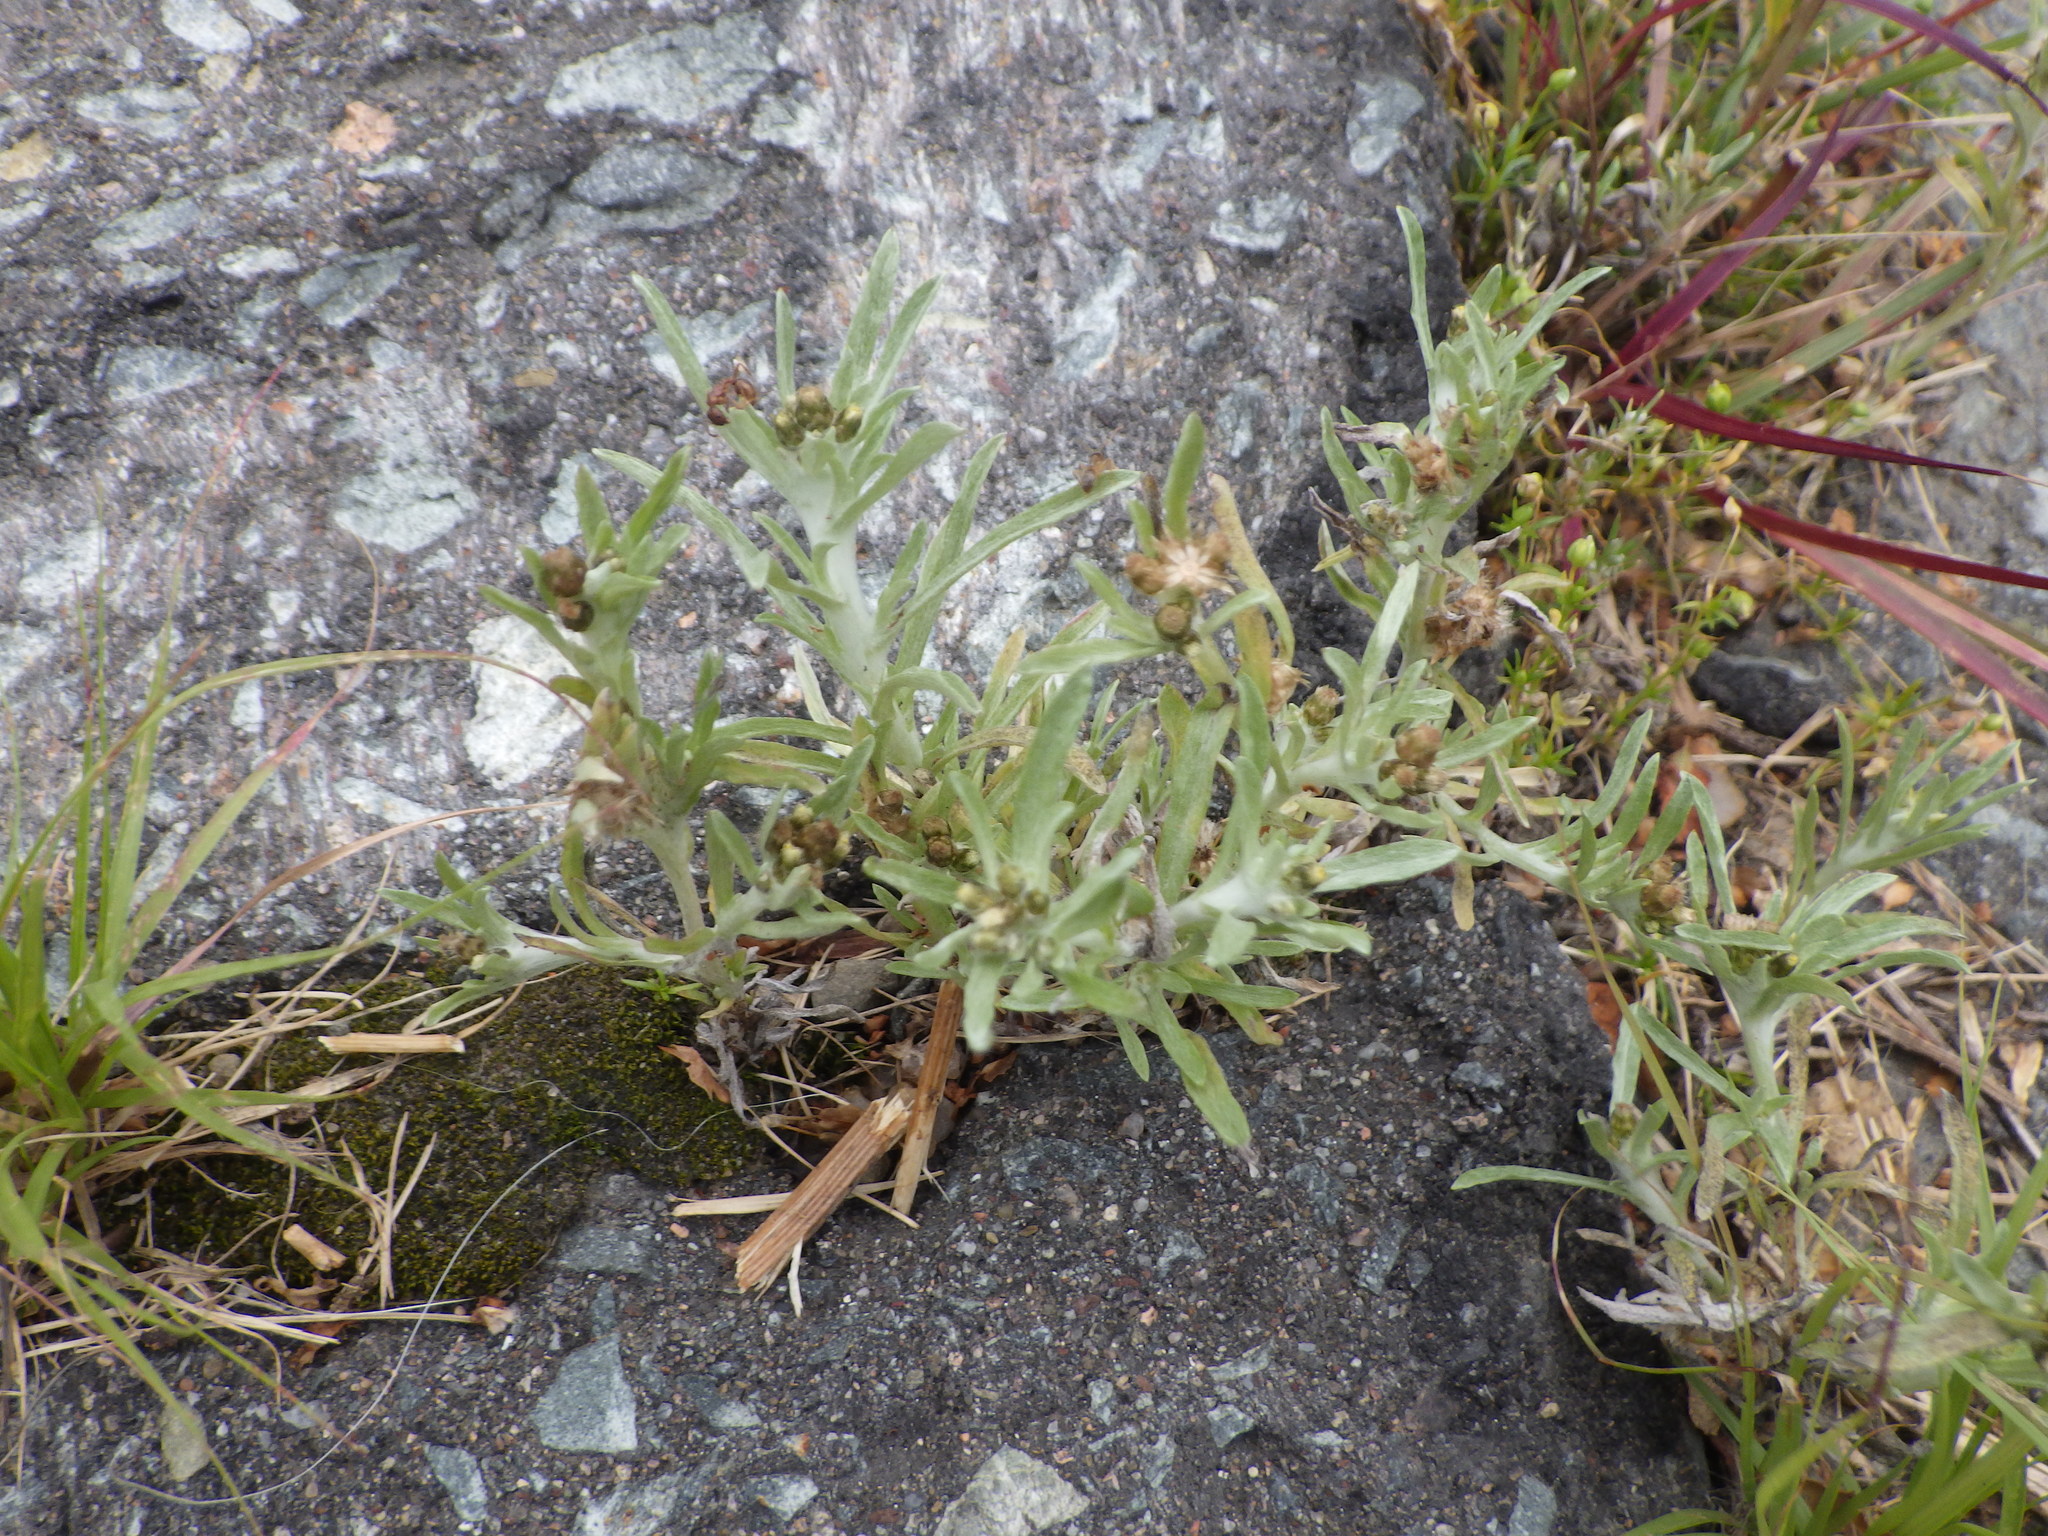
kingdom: Plantae
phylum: Tracheophyta
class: Magnoliopsida
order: Asterales
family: Asteraceae
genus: Gnaphalium
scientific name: Gnaphalium uliginosum
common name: Marsh cudweed
